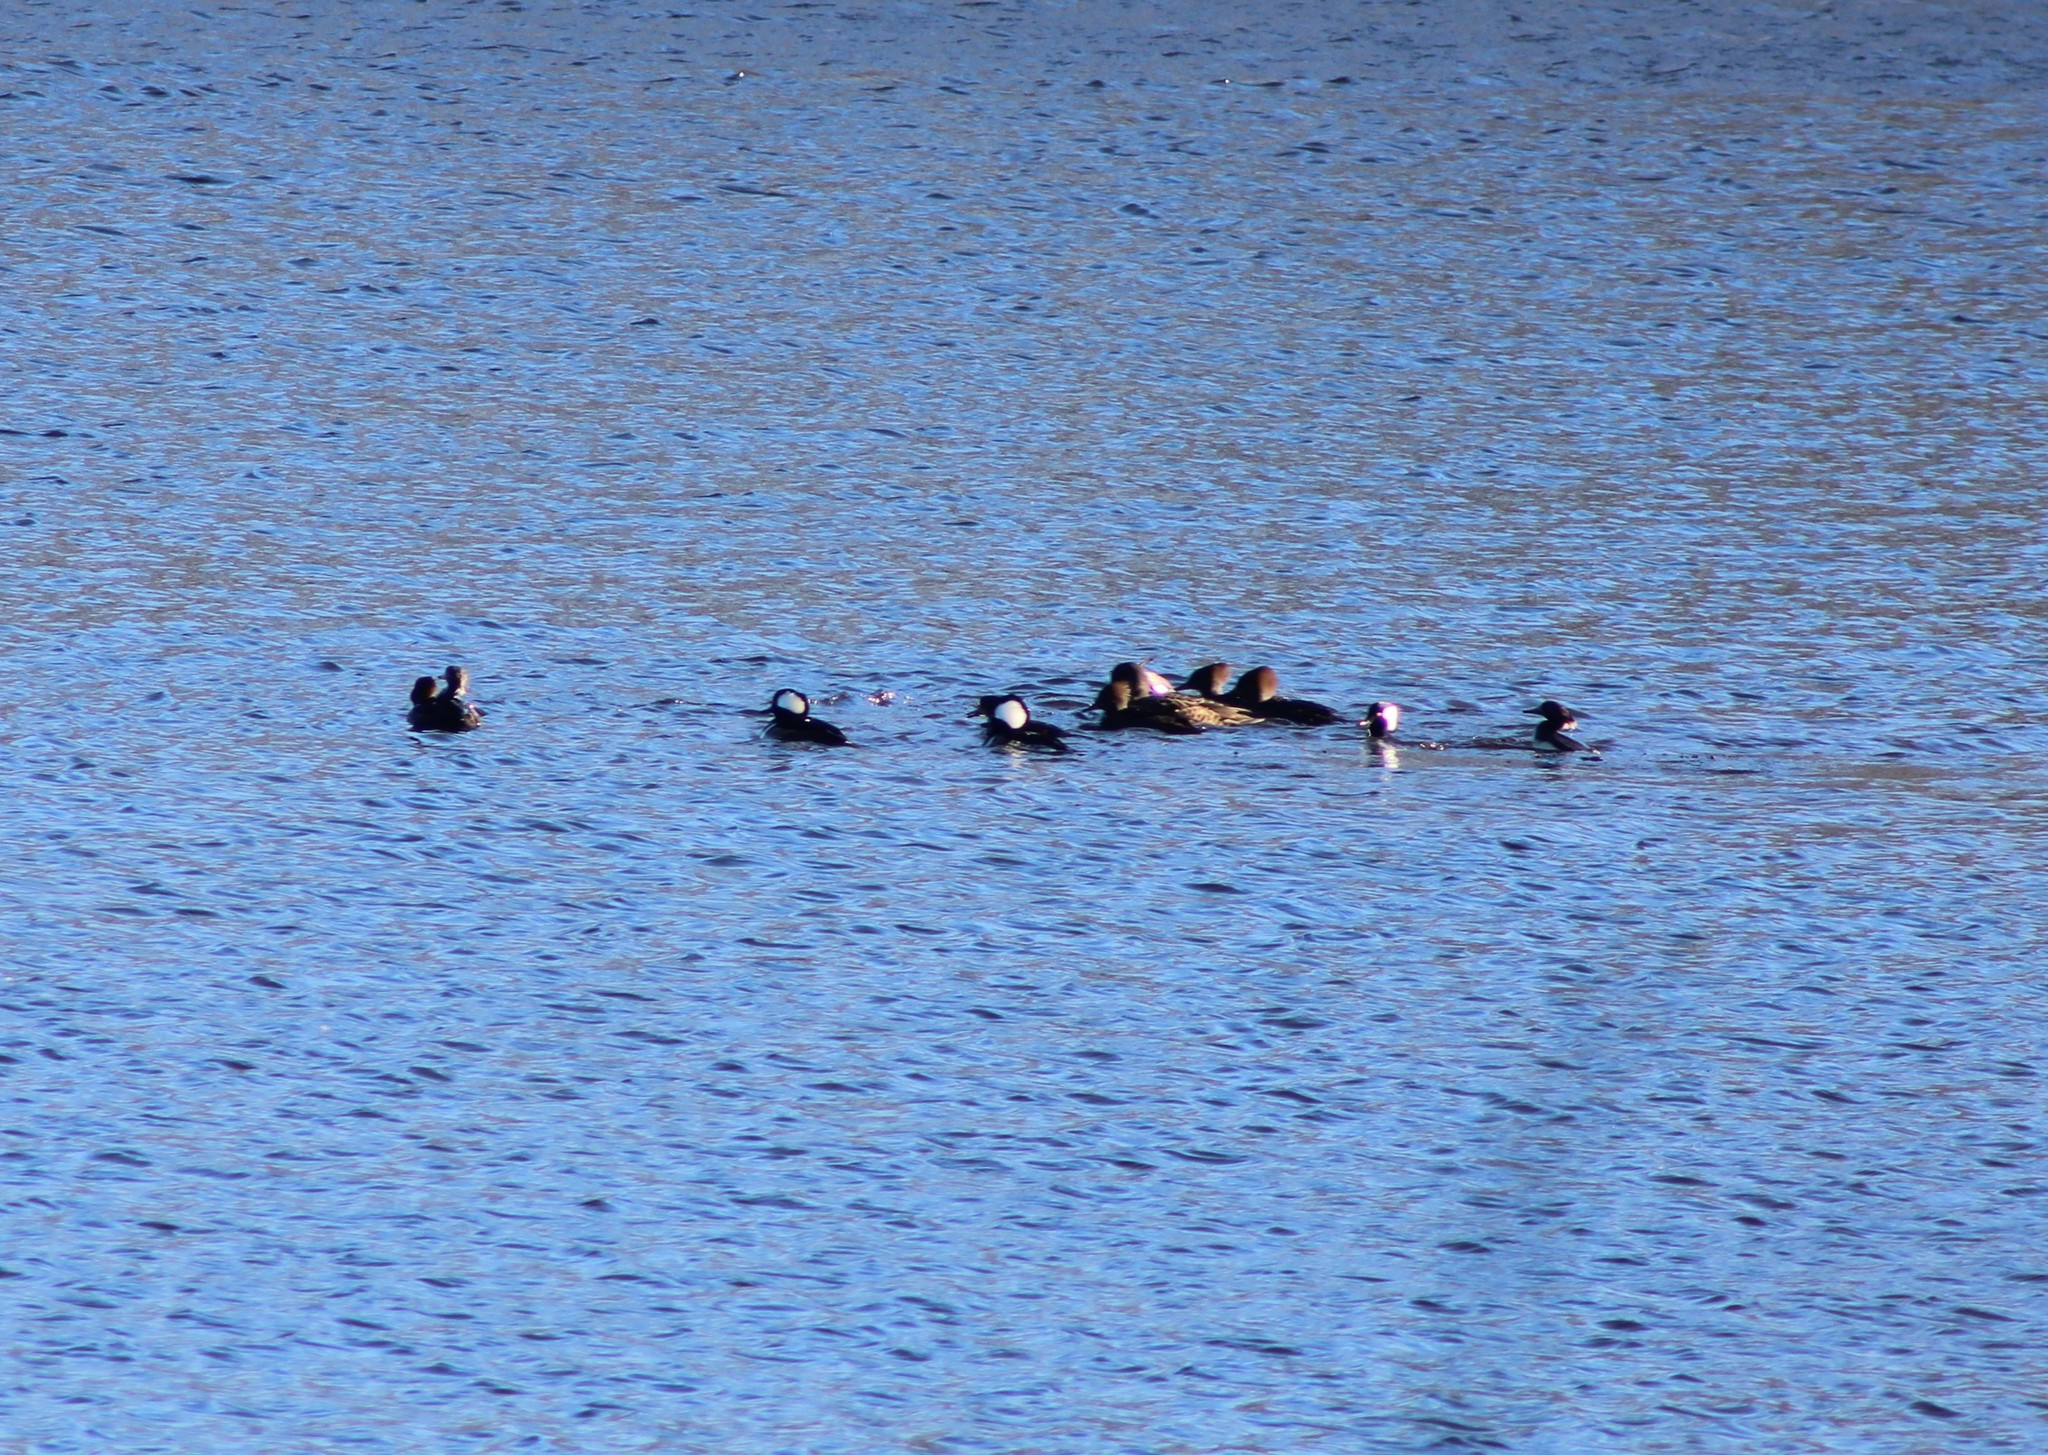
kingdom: Animalia
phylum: Chordata
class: Aves
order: Anseriformes
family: Anatidae
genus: Lophodytes
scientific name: Lophodytes cucullatus
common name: Hooded merganser
